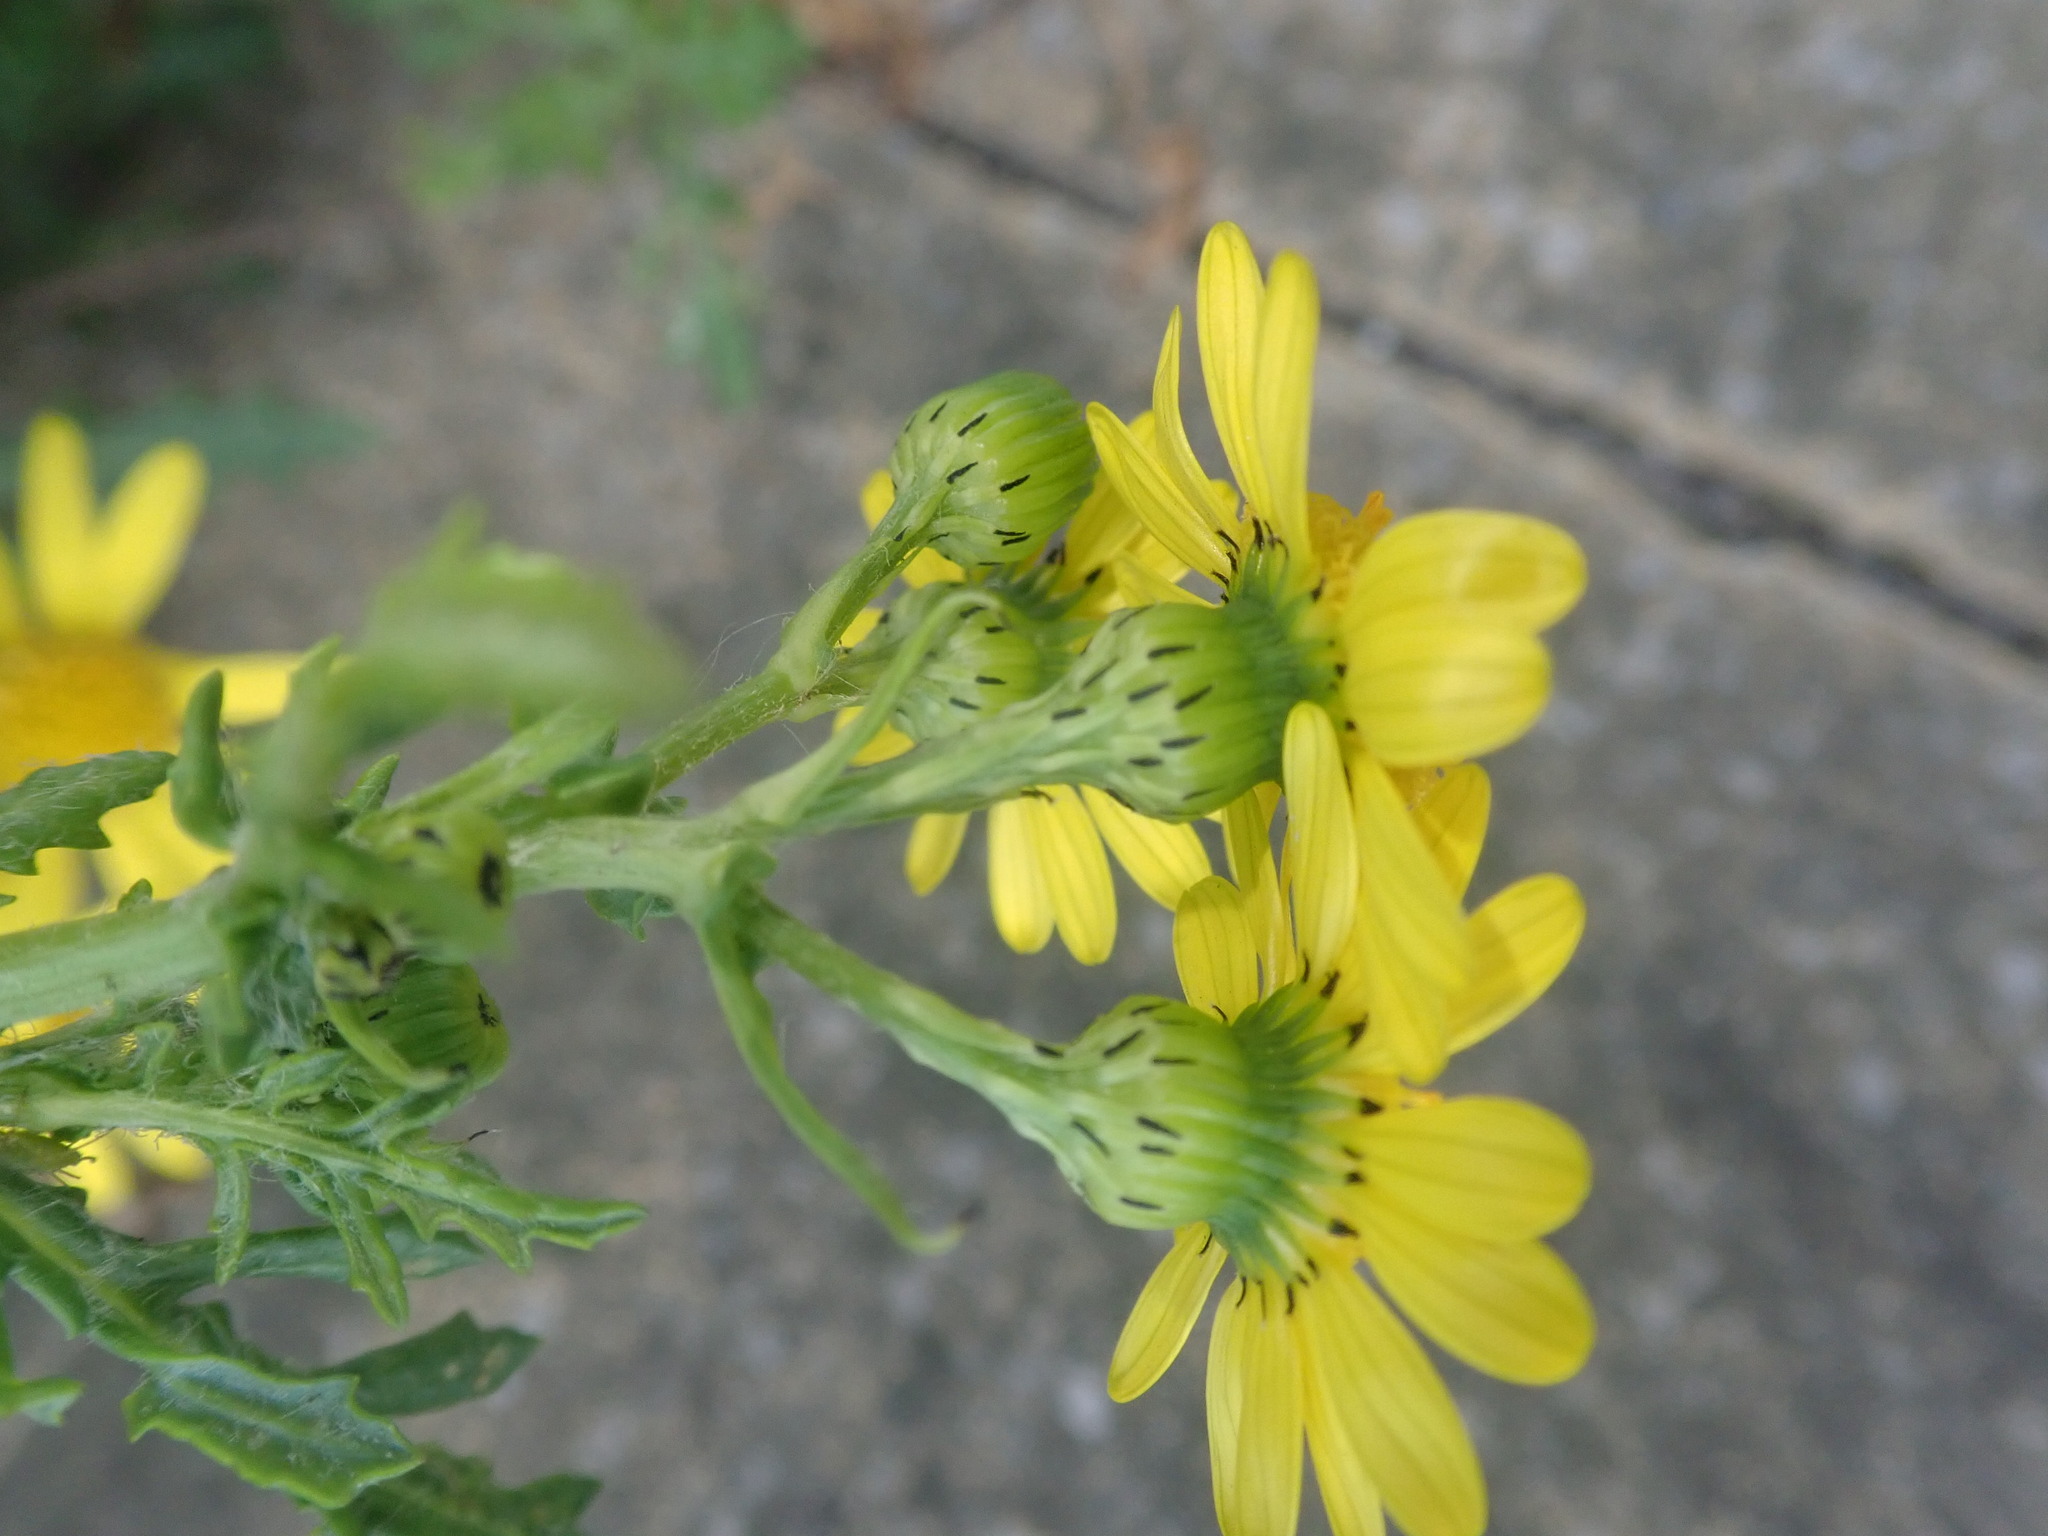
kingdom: Plantae
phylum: Tracheophyta
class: Magnoliopsida
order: Asterales
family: Asteraceae
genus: Senecio
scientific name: Senecio squalidus
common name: Oxford ragwort
